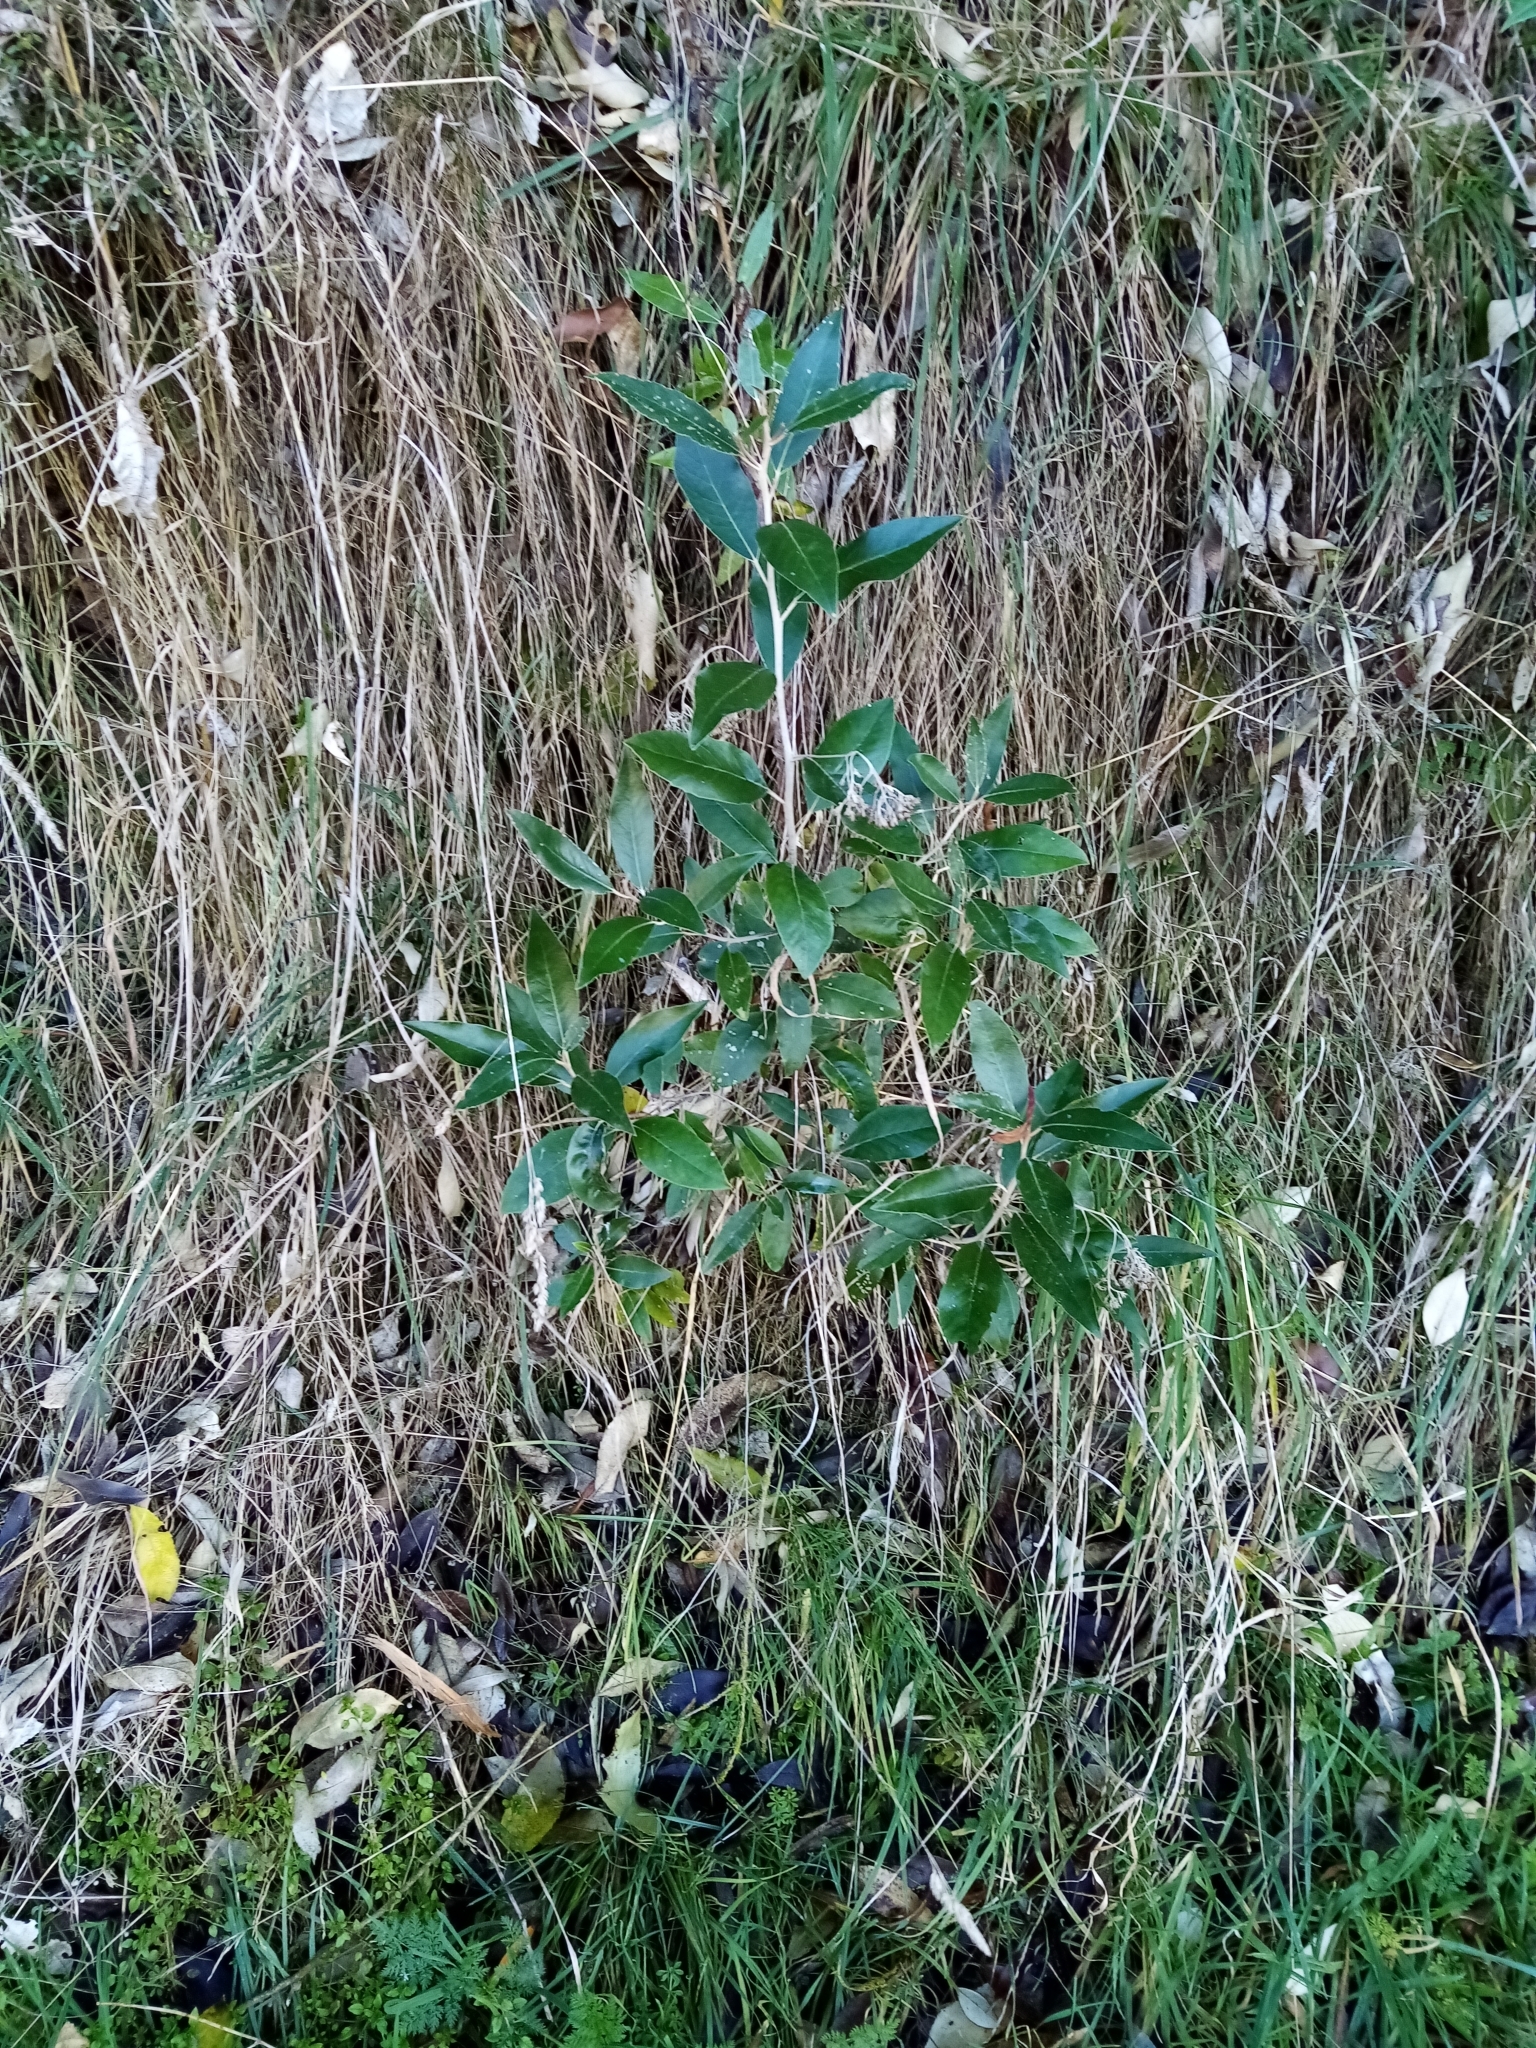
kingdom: Plantae
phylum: Tracheophyta
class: Magnoliopsida
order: Asterales
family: Asteraceae
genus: Olearia
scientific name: Olearia avicenniifolia
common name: Mangrove-leaf daisybush
